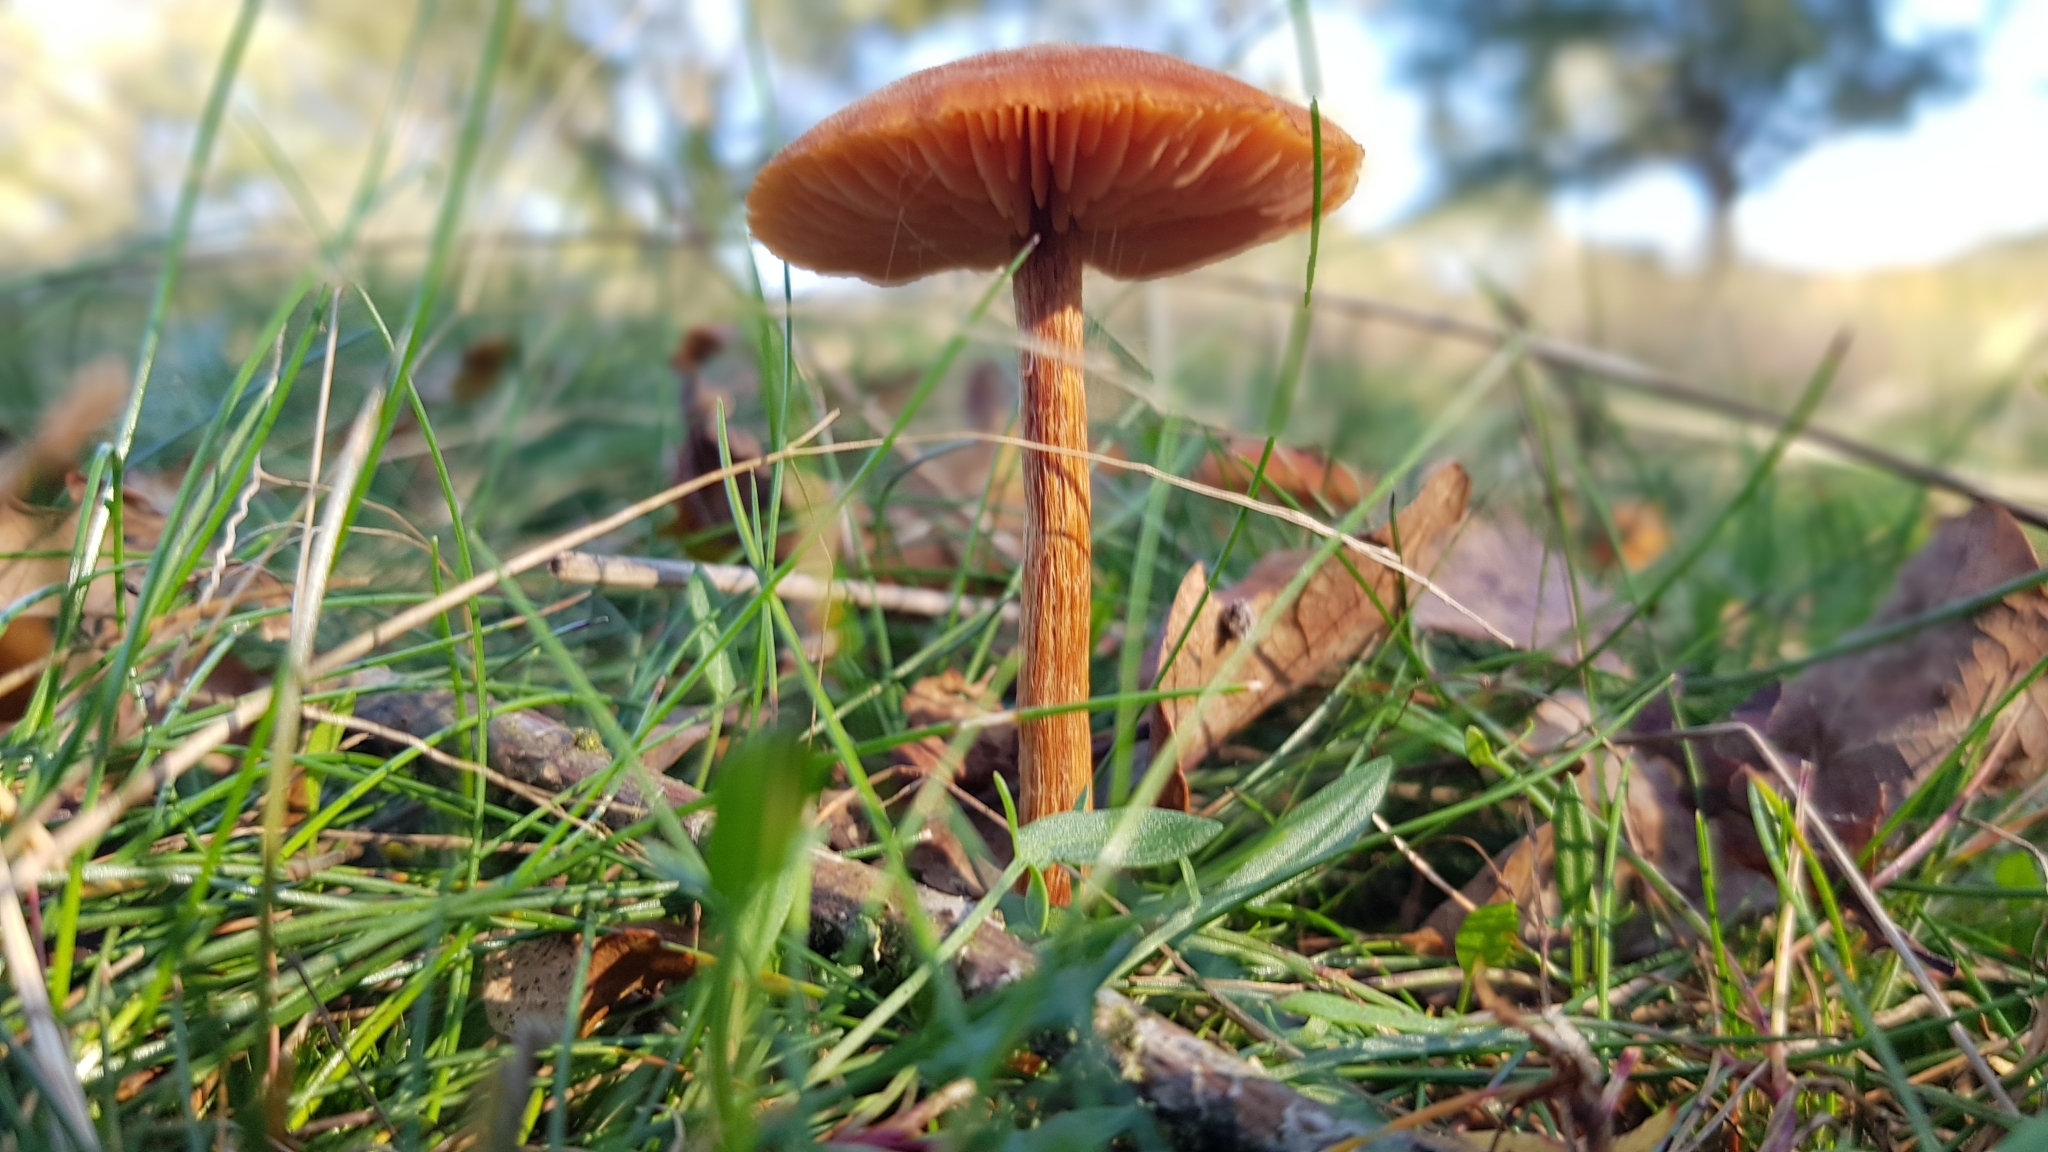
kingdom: Fungi
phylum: Basidiomycota
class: Agaricomycetes
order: Agaricales
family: Hydnangiaceae
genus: Laccaria
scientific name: Laccaria proxima
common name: Scurfy deceiver
